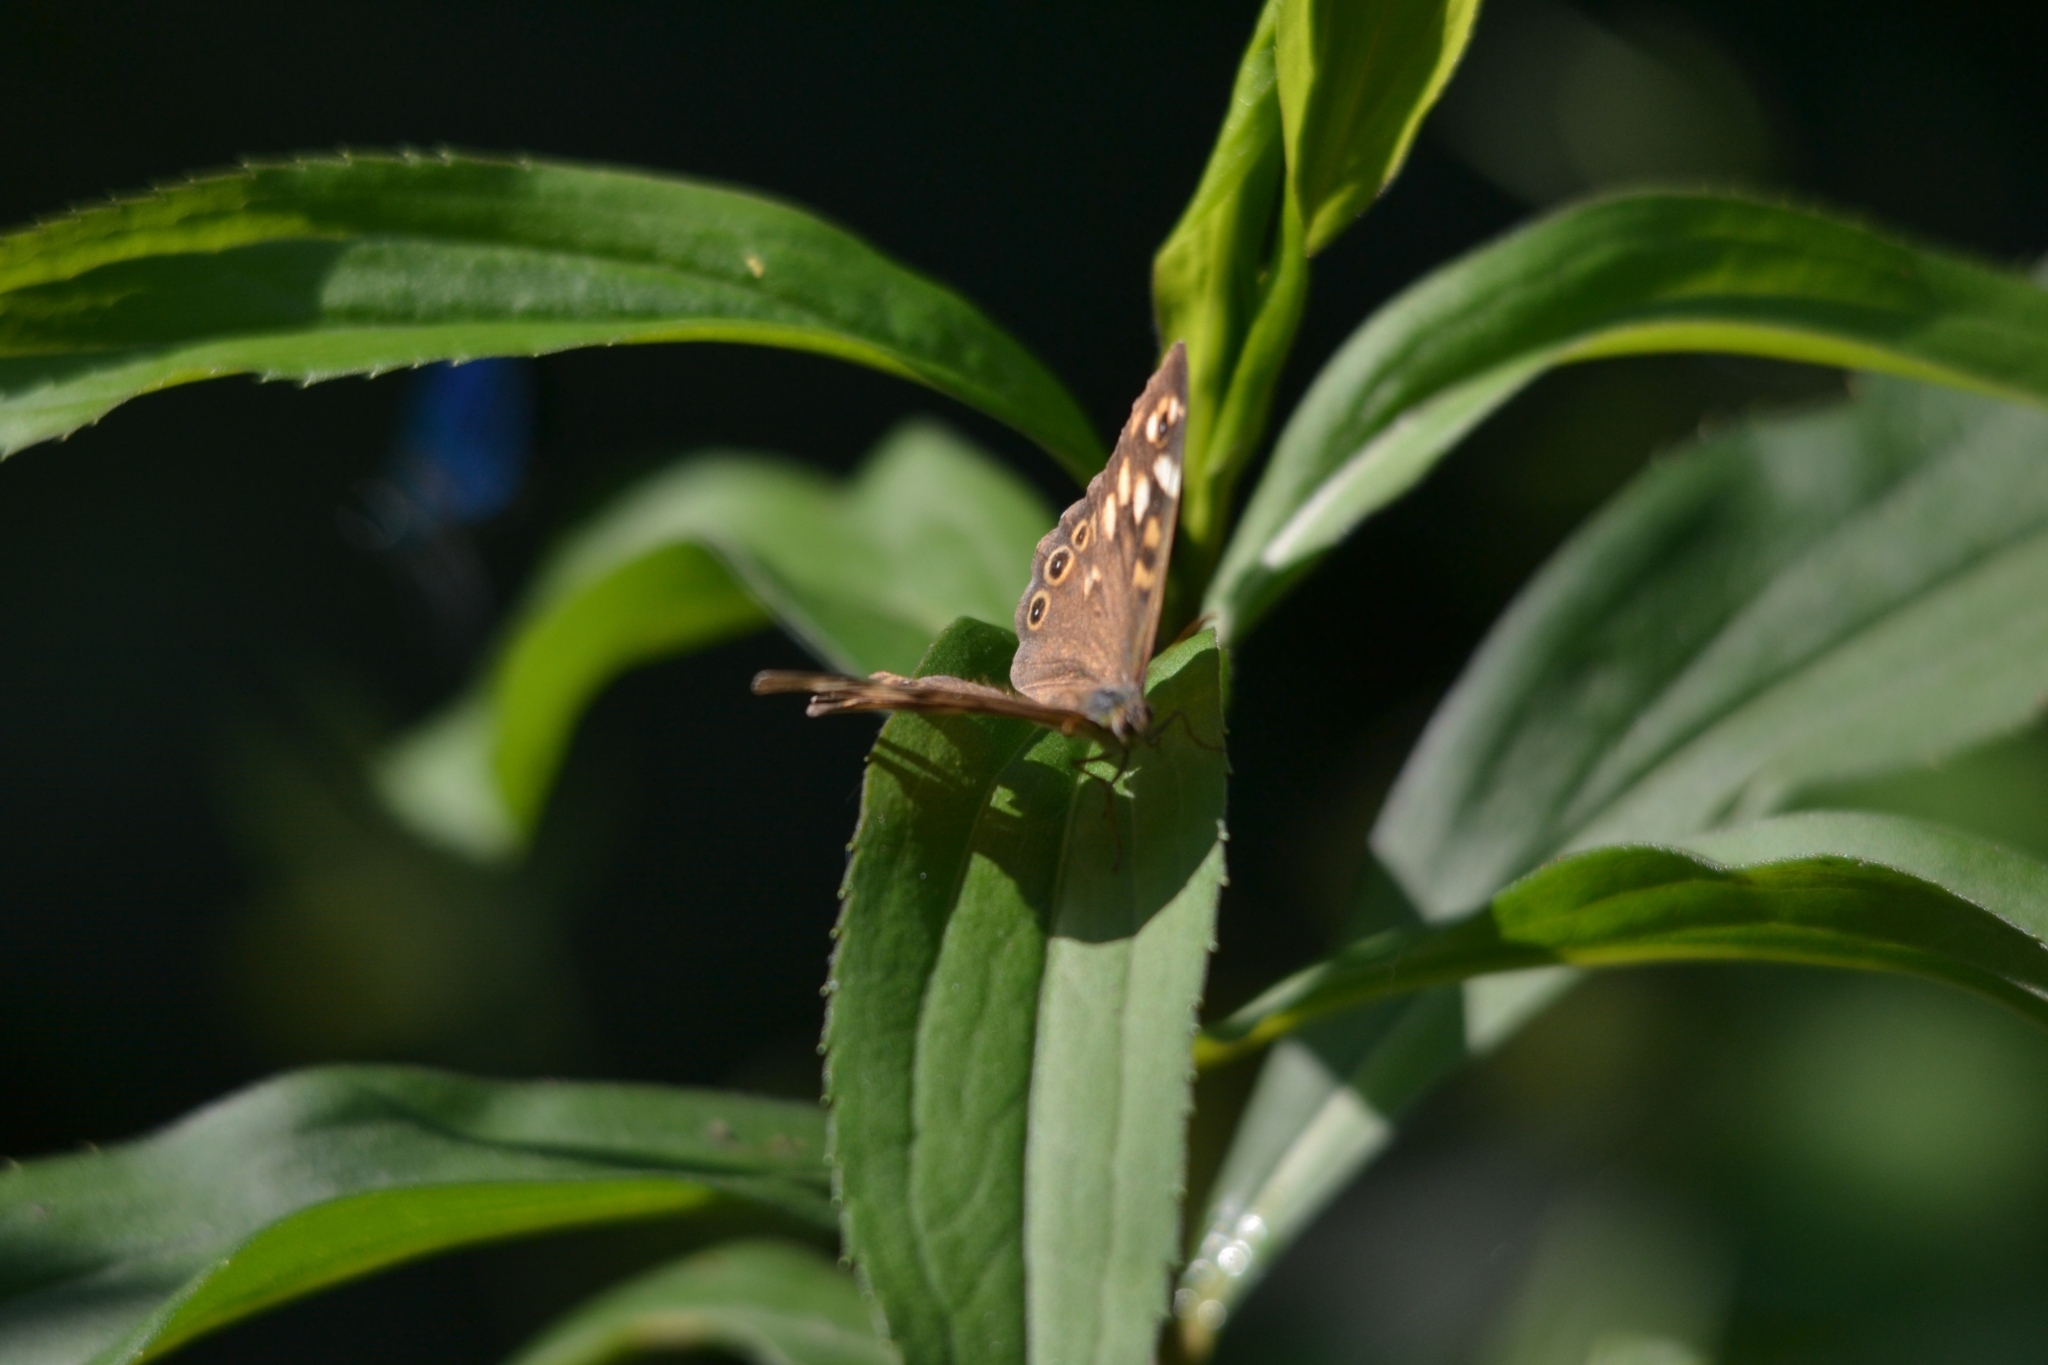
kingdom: Animalia
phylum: Arthropoda
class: Insecta
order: Lepidoptera
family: Nymphalidae
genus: Pararge
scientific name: Pararge aegeria
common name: Speckled wood
